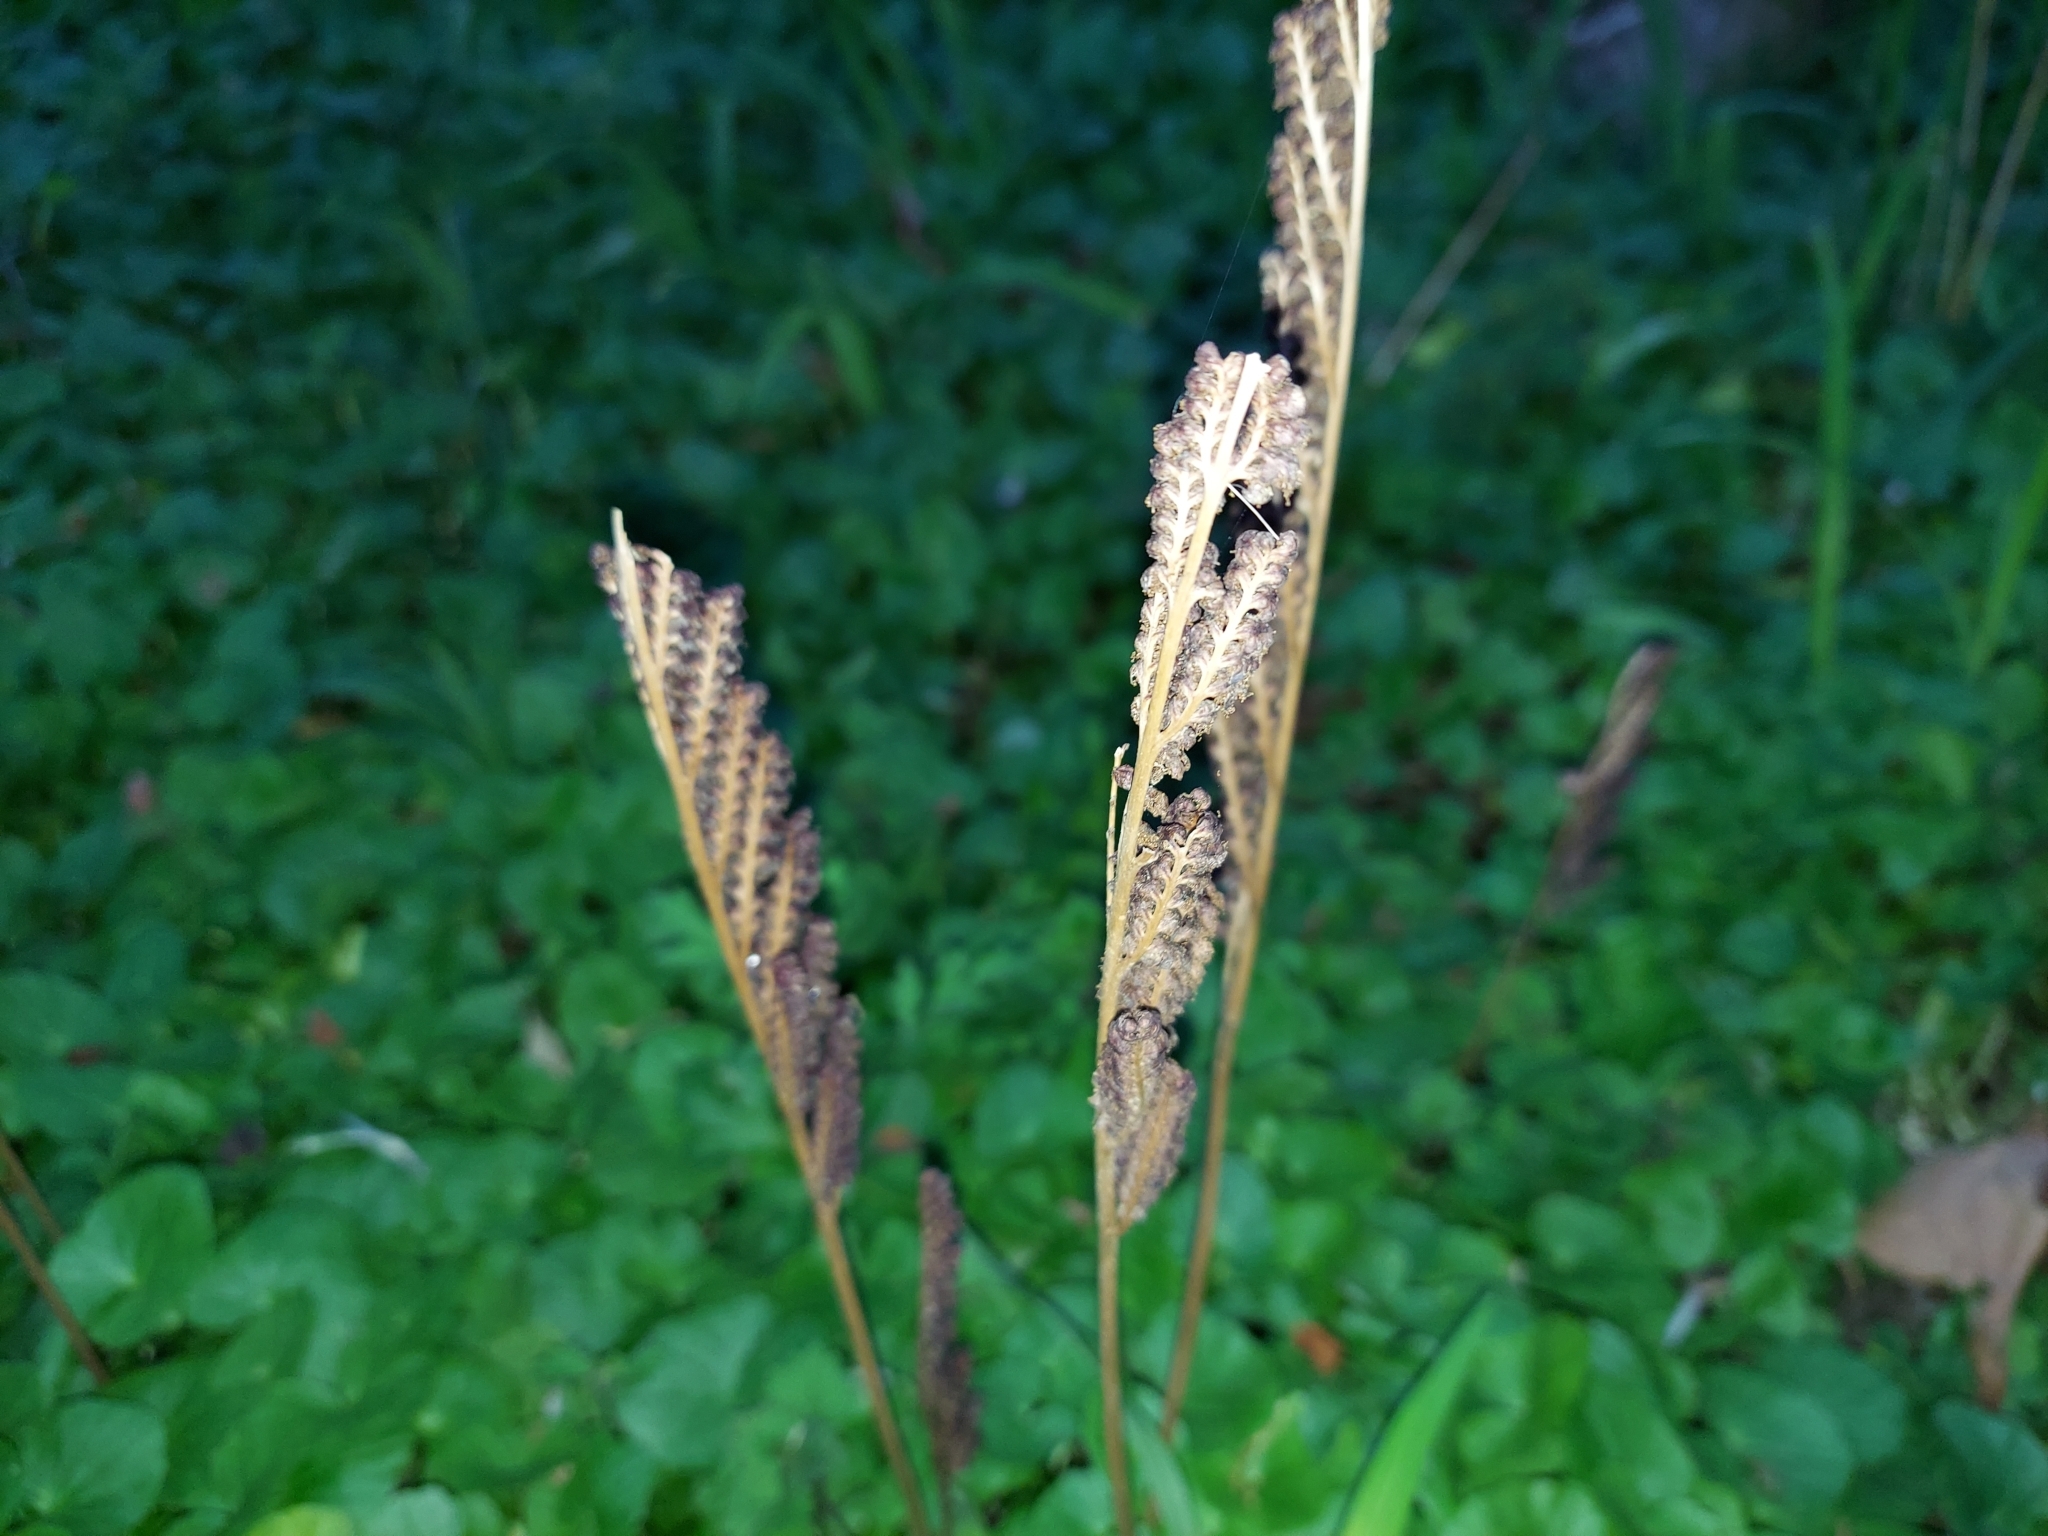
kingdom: Plantae
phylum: Tracheophyta
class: Polypodiopsida
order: Polypodiales
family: Onocleaceae
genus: Onoclea
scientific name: Onoclea sensibilis
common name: Sensitive fern
